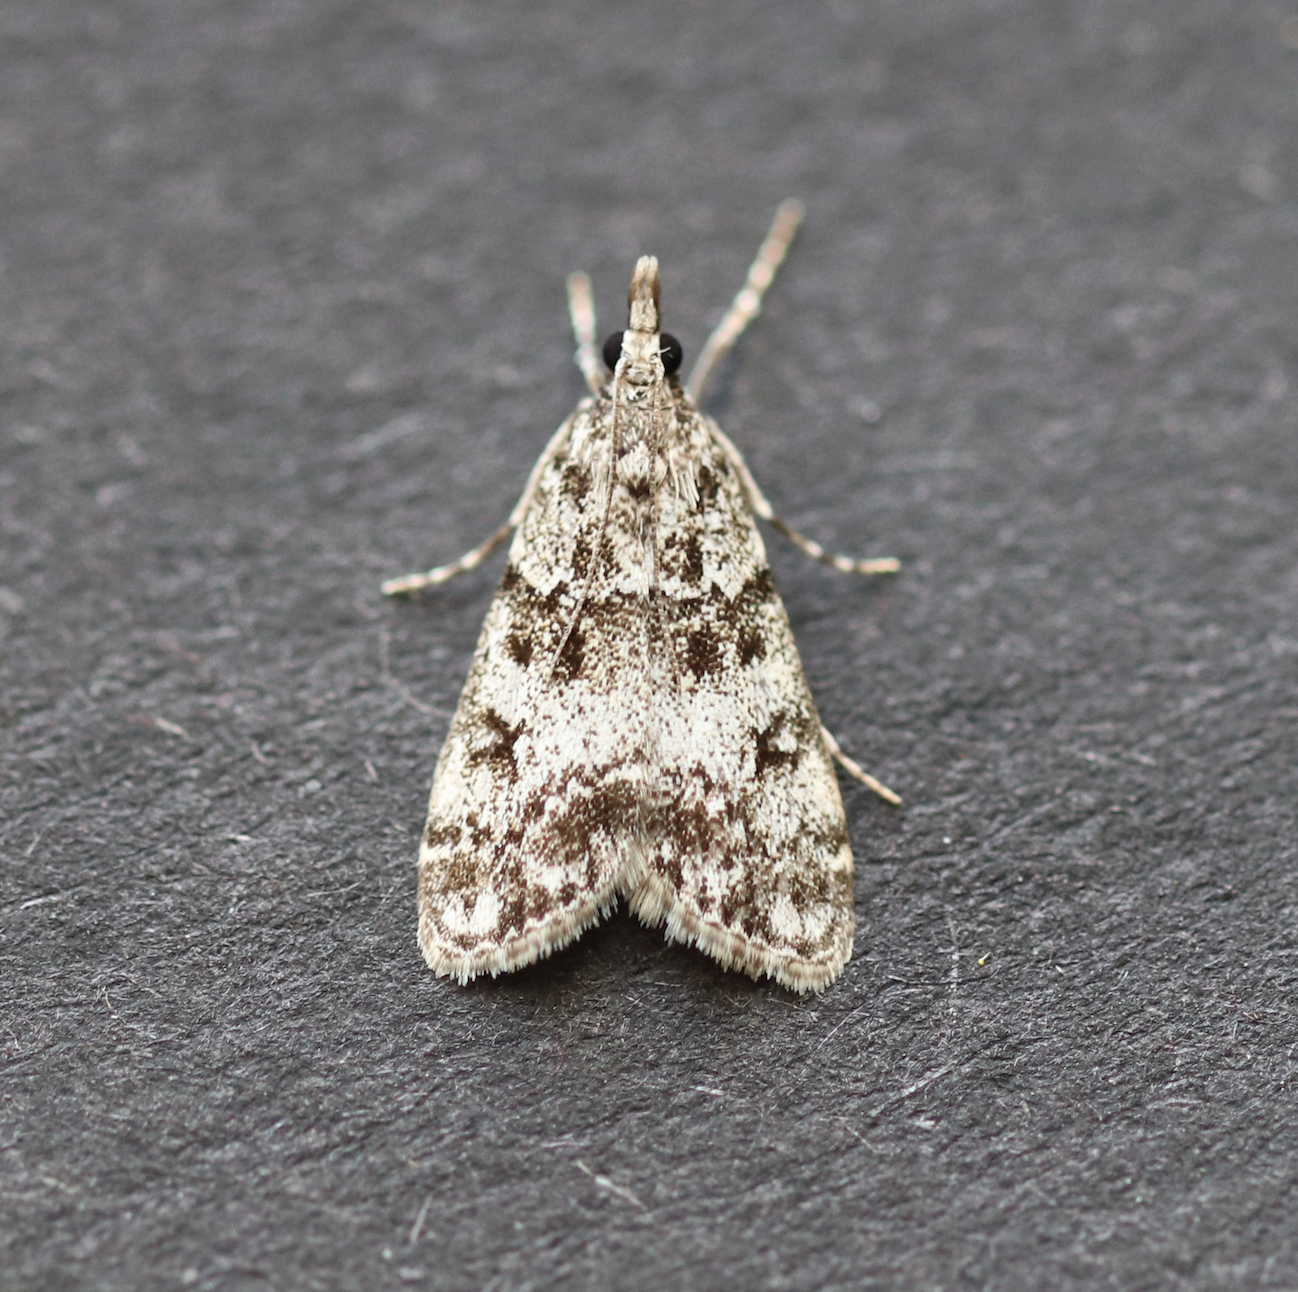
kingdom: Animalia
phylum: Arthropoda
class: Insecta
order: Lepidoptera
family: Crambidae
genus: Eudonia
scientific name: Eudonia lacustrata
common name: Little grey
